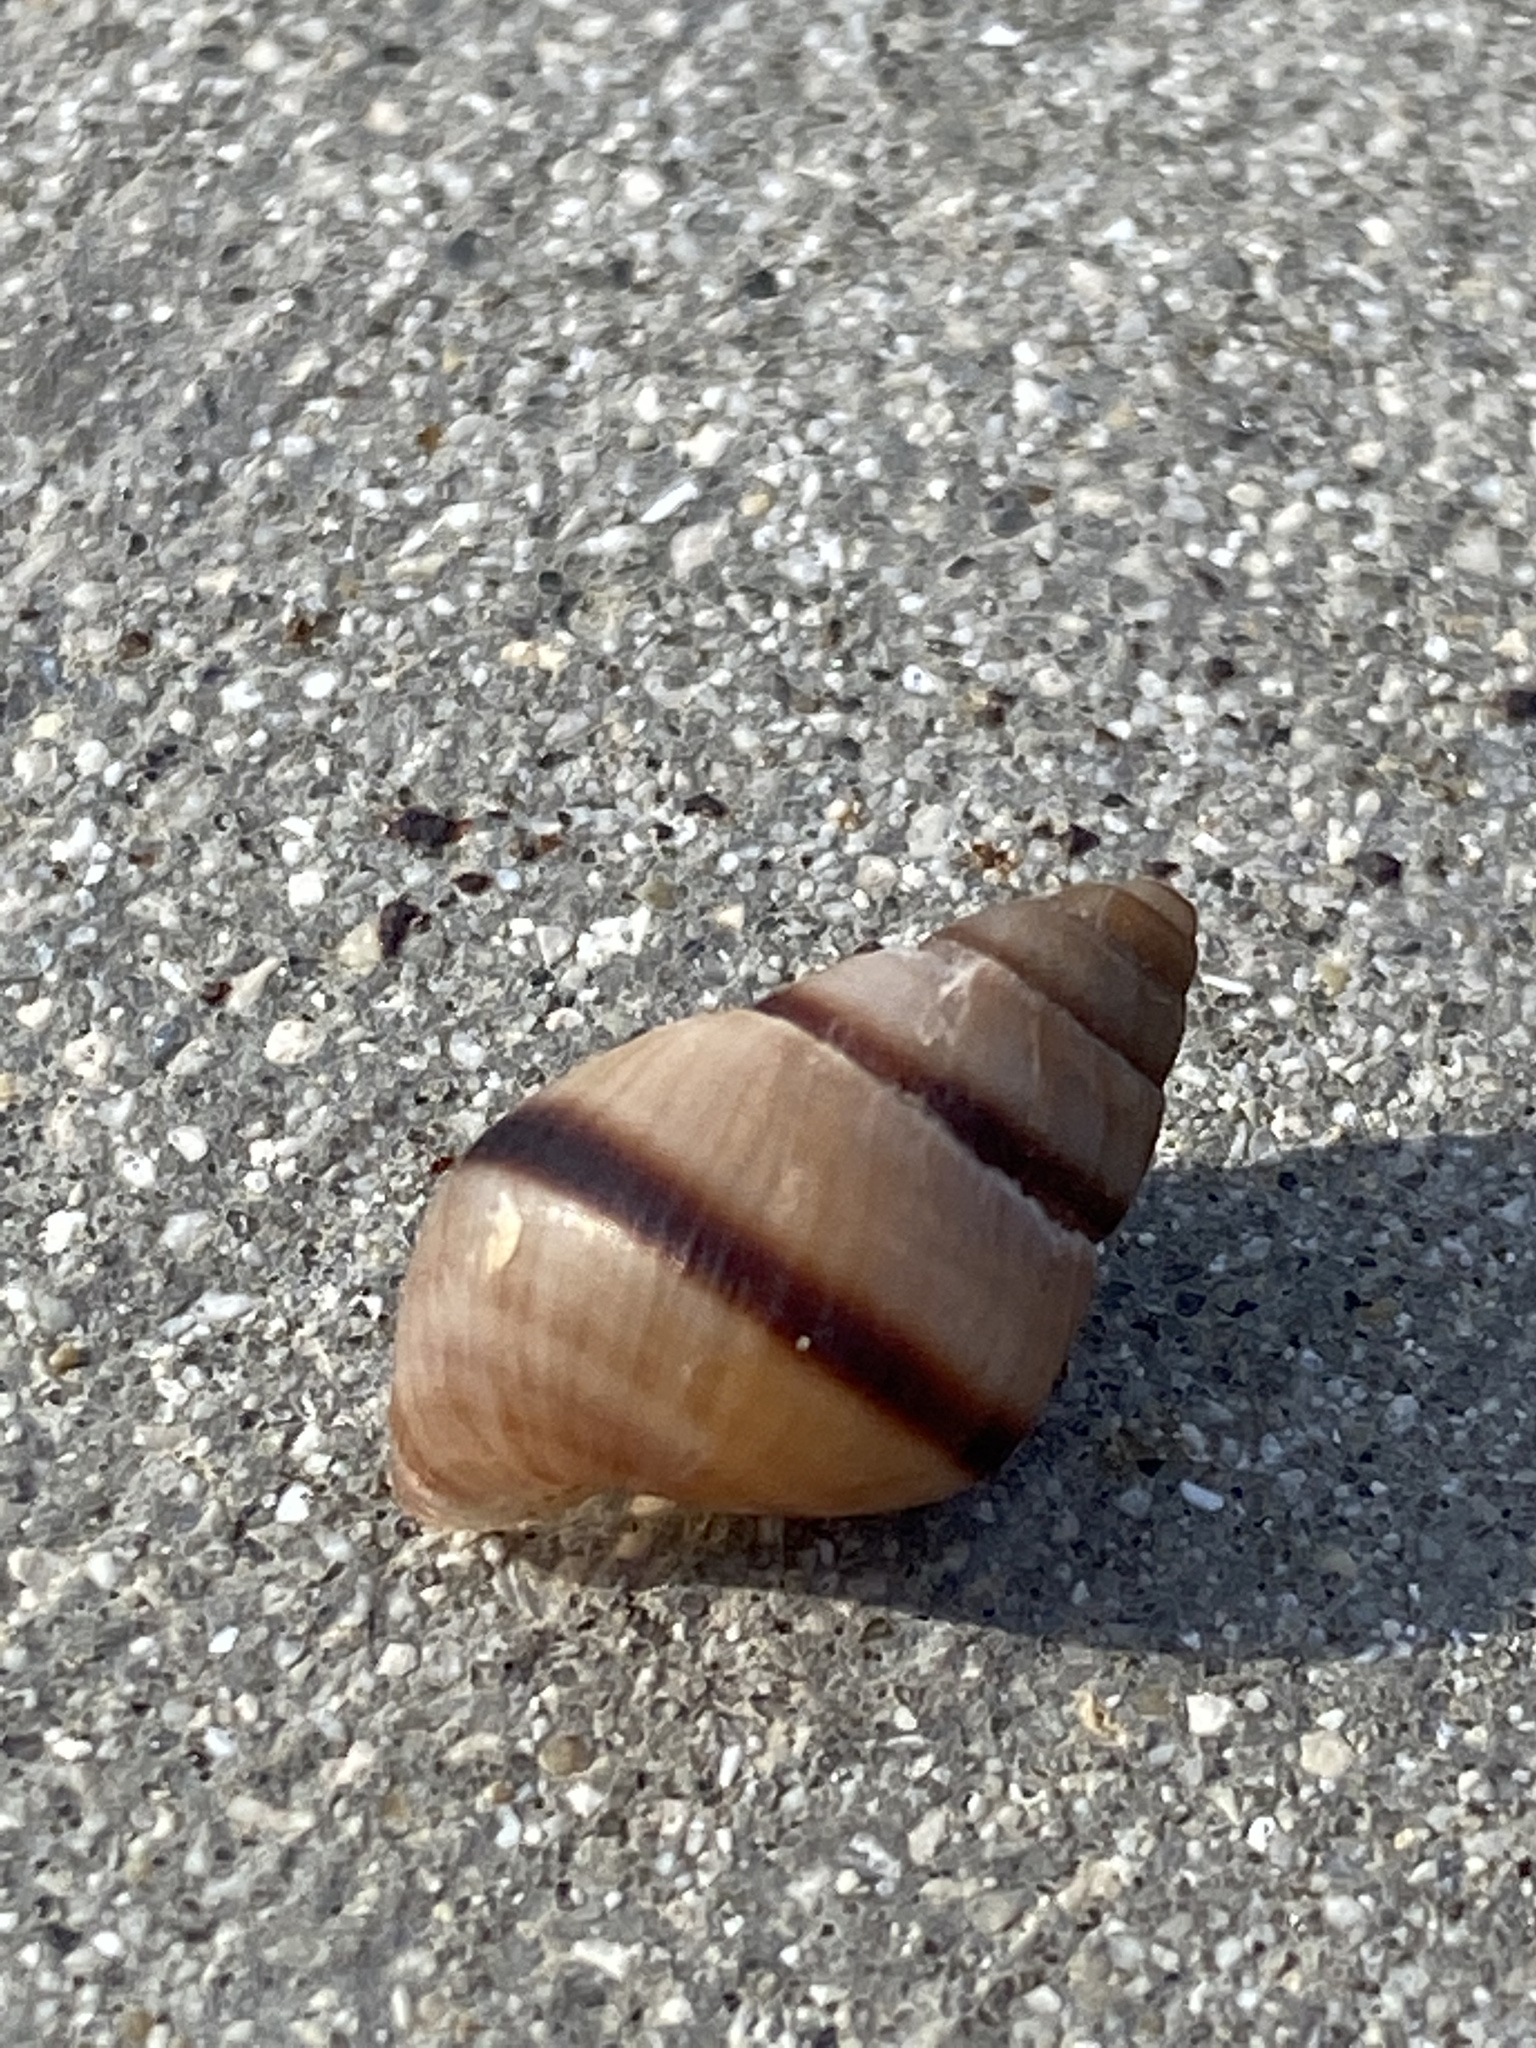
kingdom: Animalia
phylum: Mollusca
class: Gastropoda
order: Stylommatophora
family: Bulimulidae
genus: Bulimulus
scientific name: Bulimulus guadalupensis
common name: West indian bulimulus
